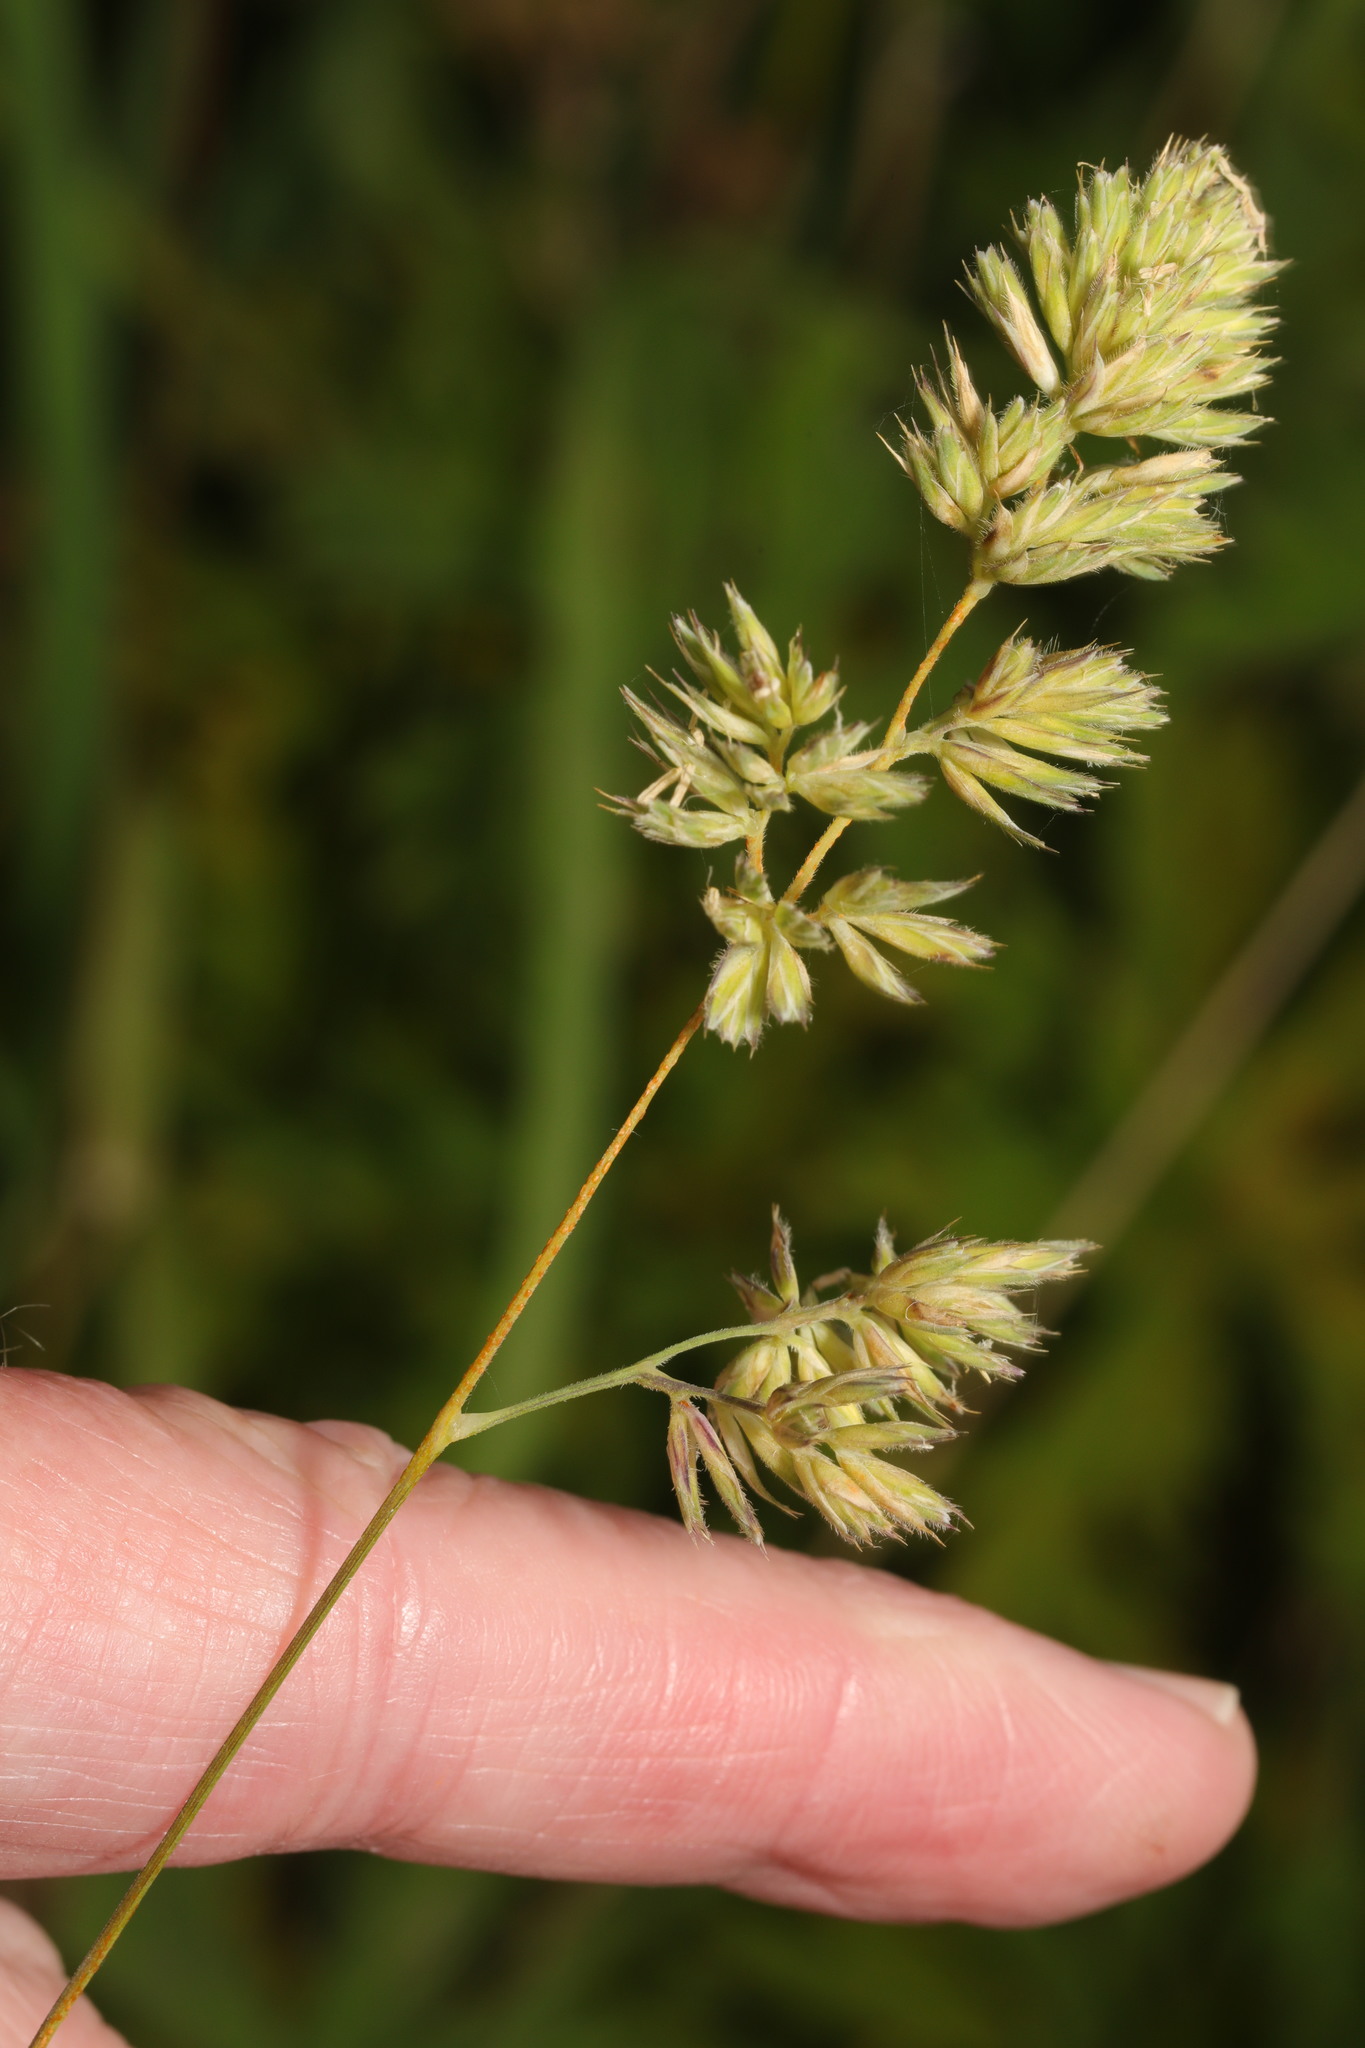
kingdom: Plantae
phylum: Tracheophyta
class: Liliopsida
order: Poales
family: Poaceae
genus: Dactylis
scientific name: Dactylis glomerata
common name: Orchardgrass
